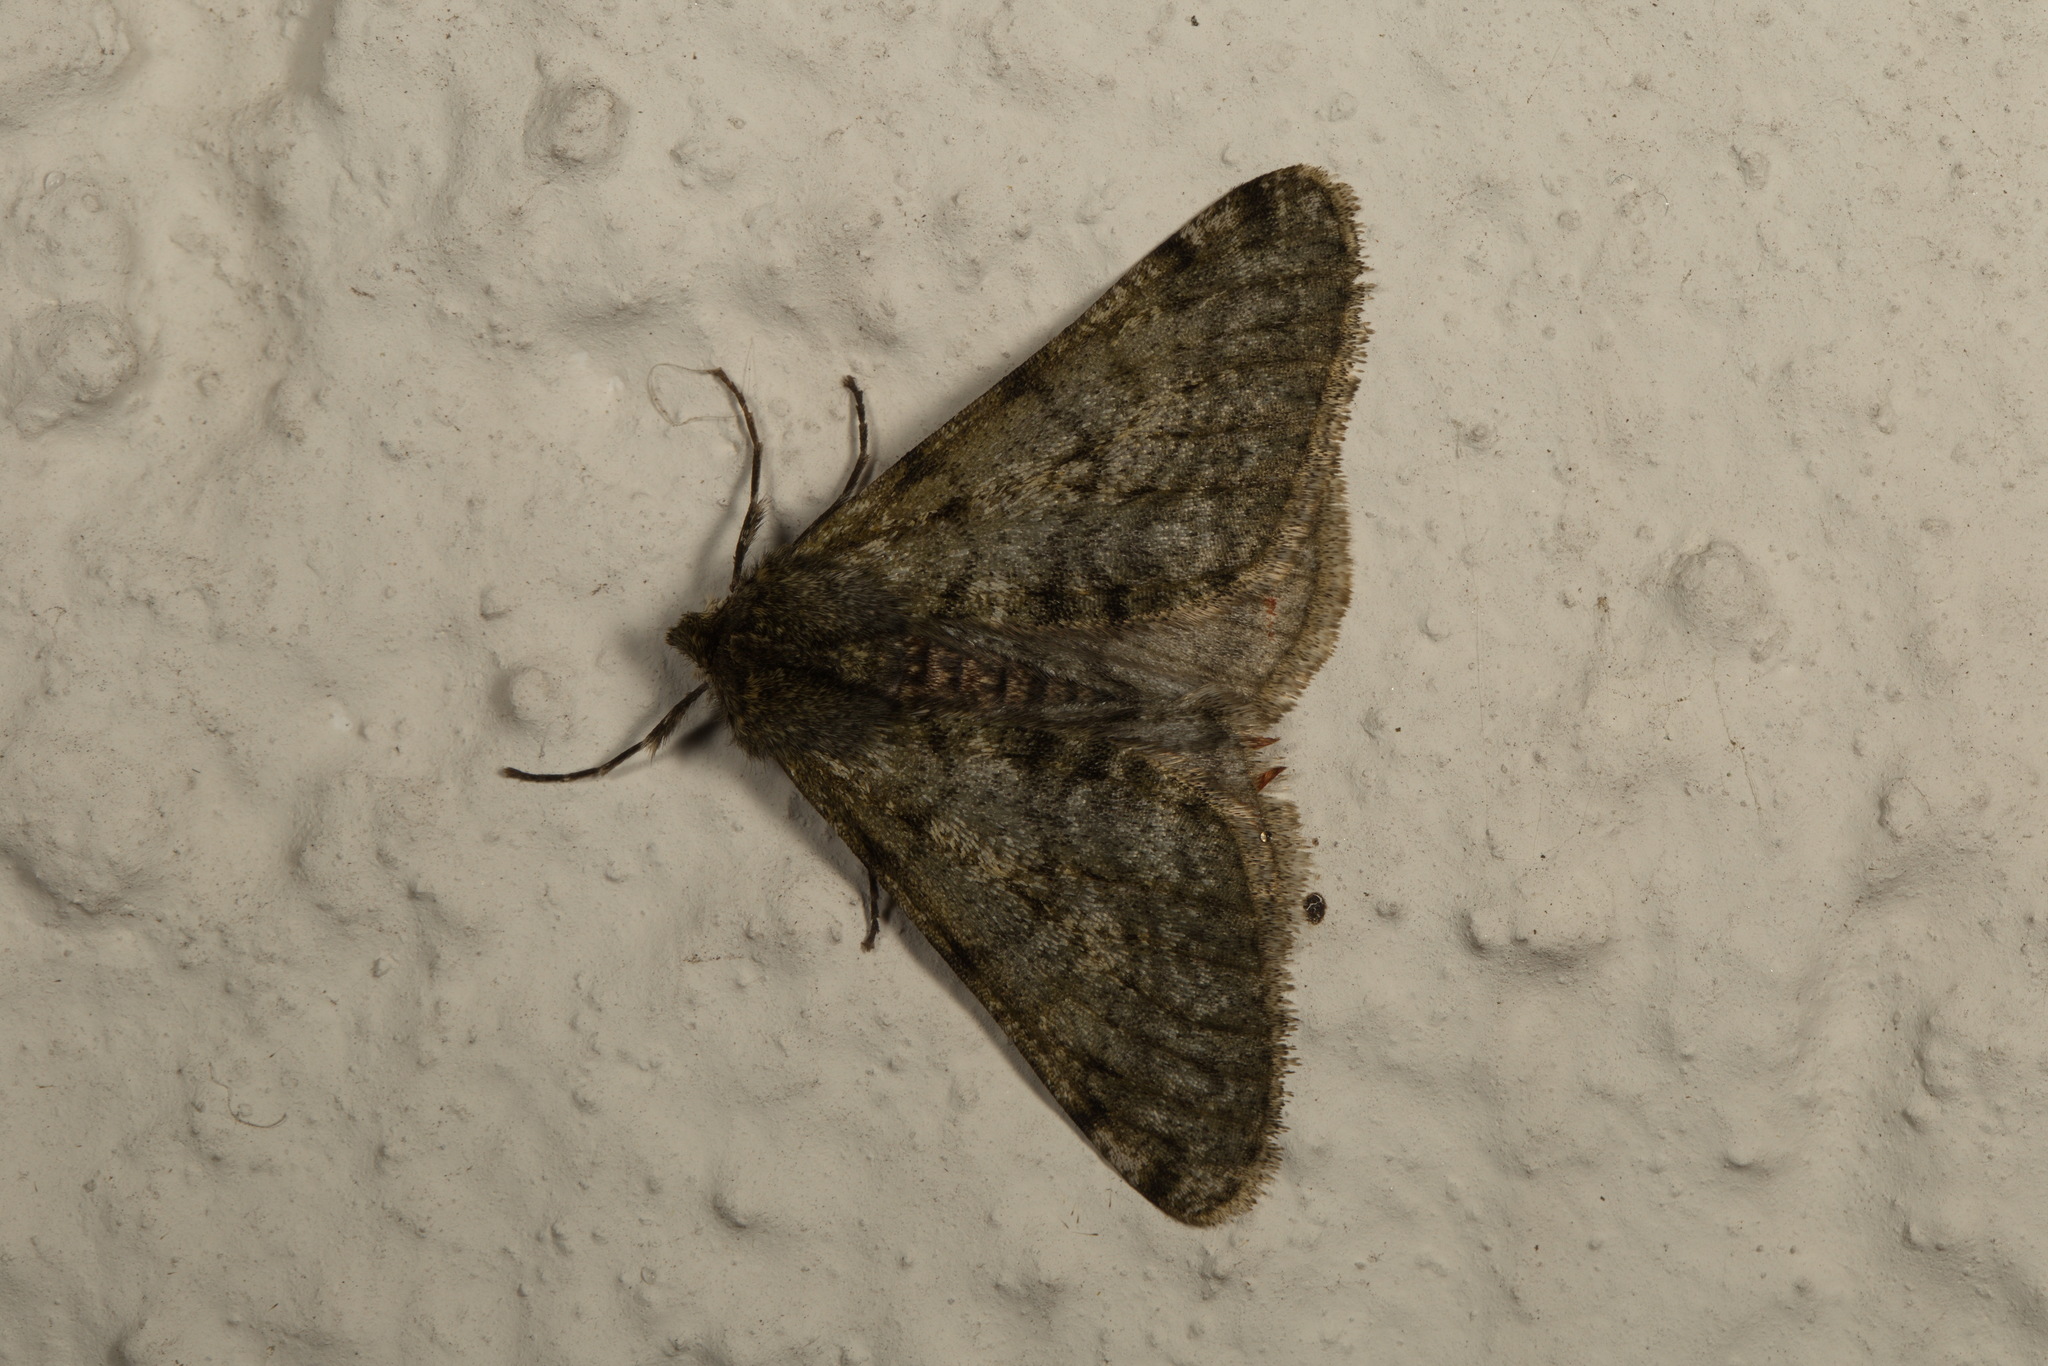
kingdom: Animalia
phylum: Arthropoda
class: Insecta
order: Lepidoptera
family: Geometridae
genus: Phigalia
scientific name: Phigalia pilosaria
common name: Pale brindled beauty
